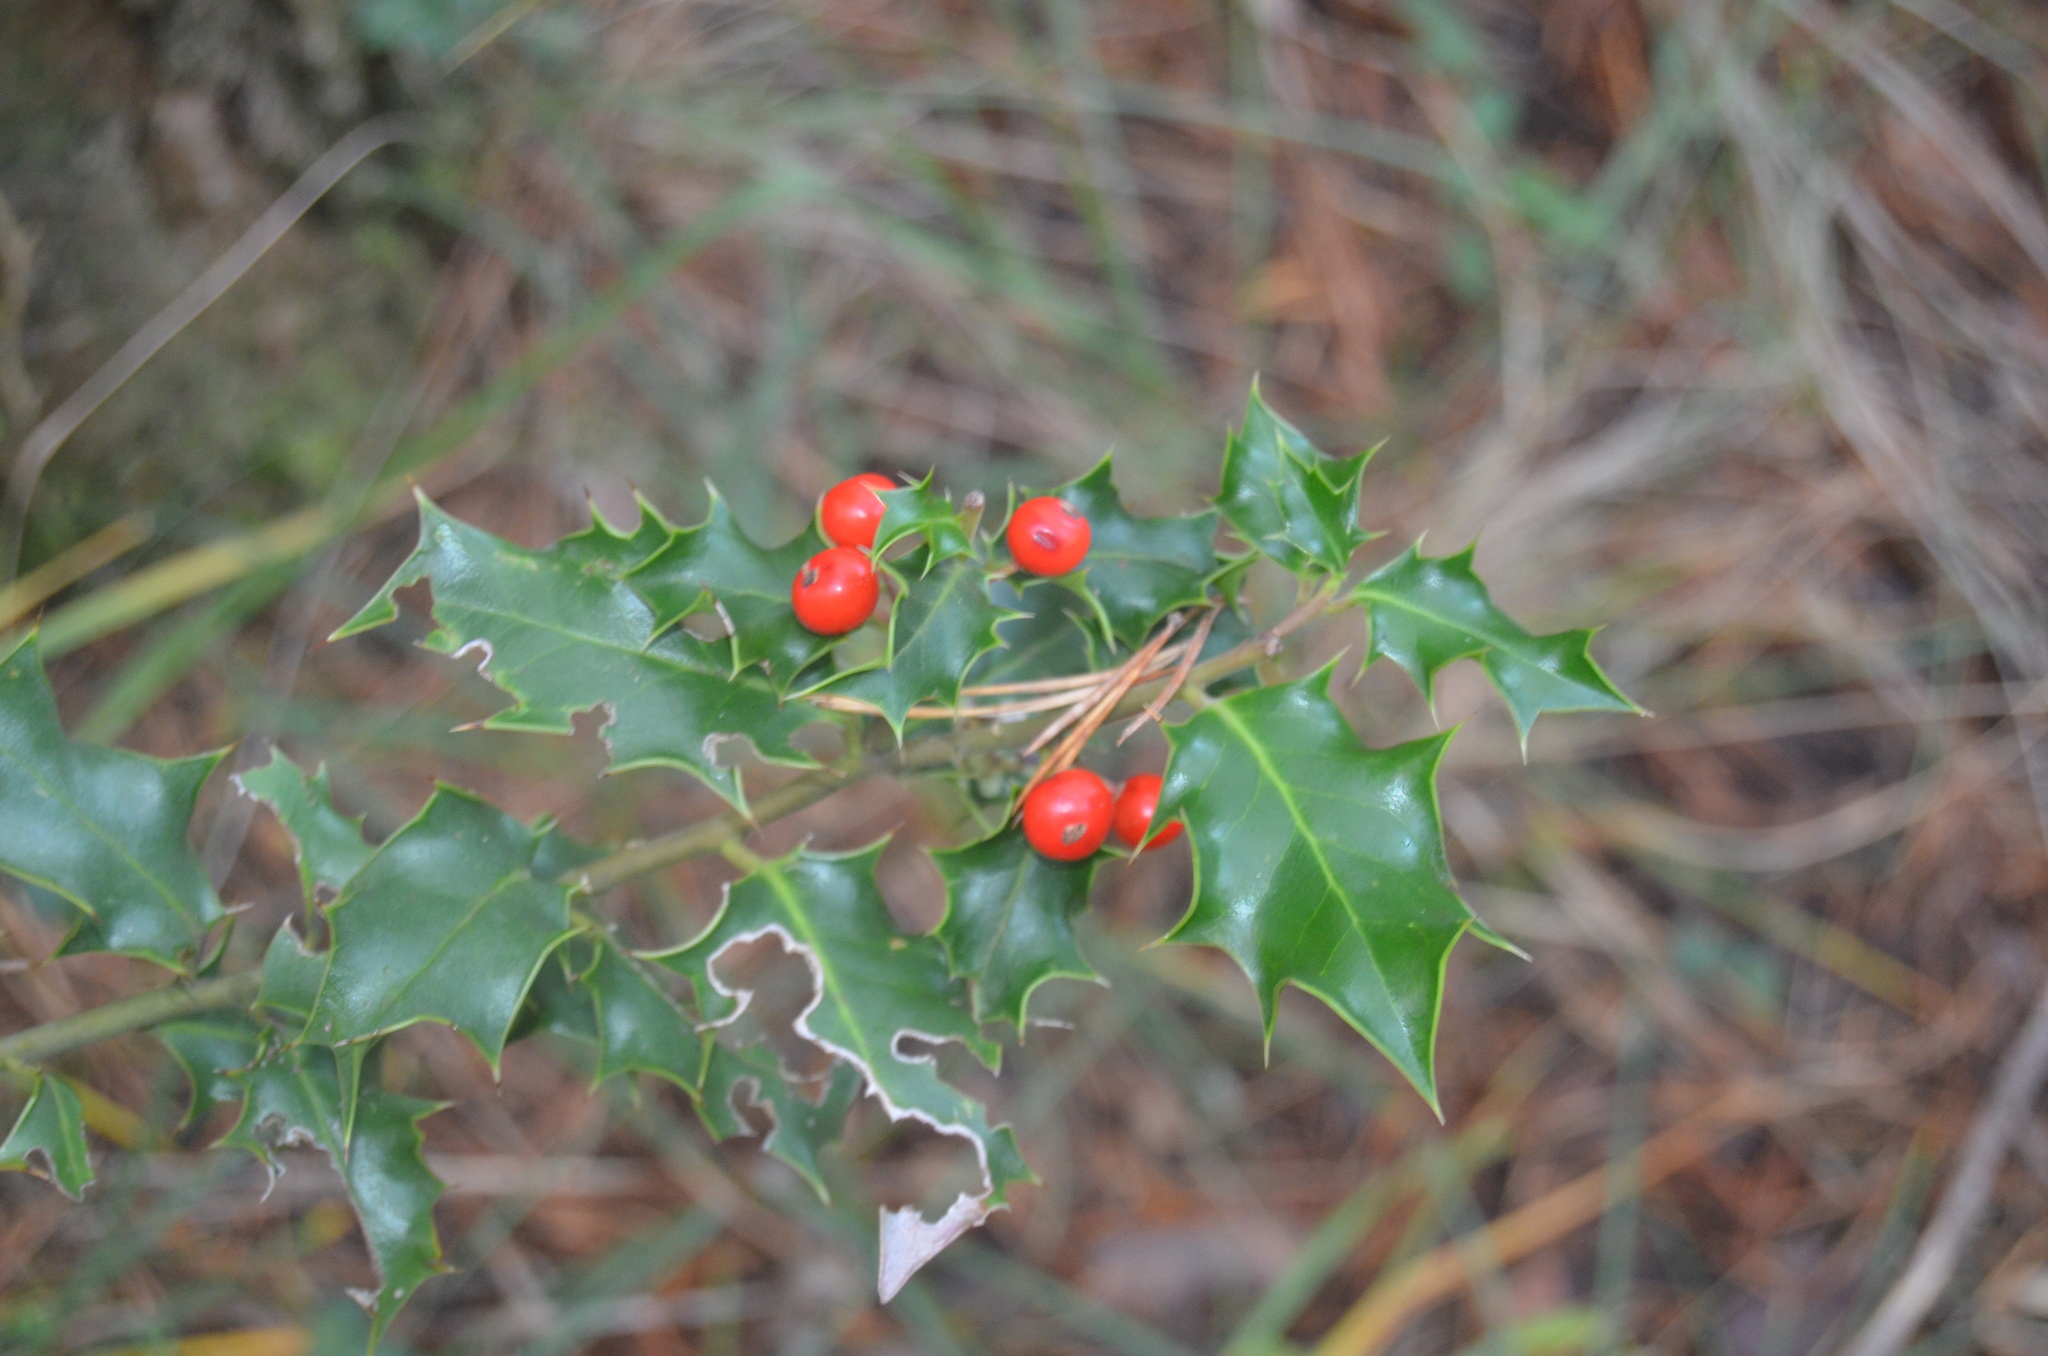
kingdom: Plantae
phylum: Tracheophyta
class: Magnoliopsida
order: Aquifoliales
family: Aquifoliaceae
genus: Ilex
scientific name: Ilex aquifolium
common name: English holly
